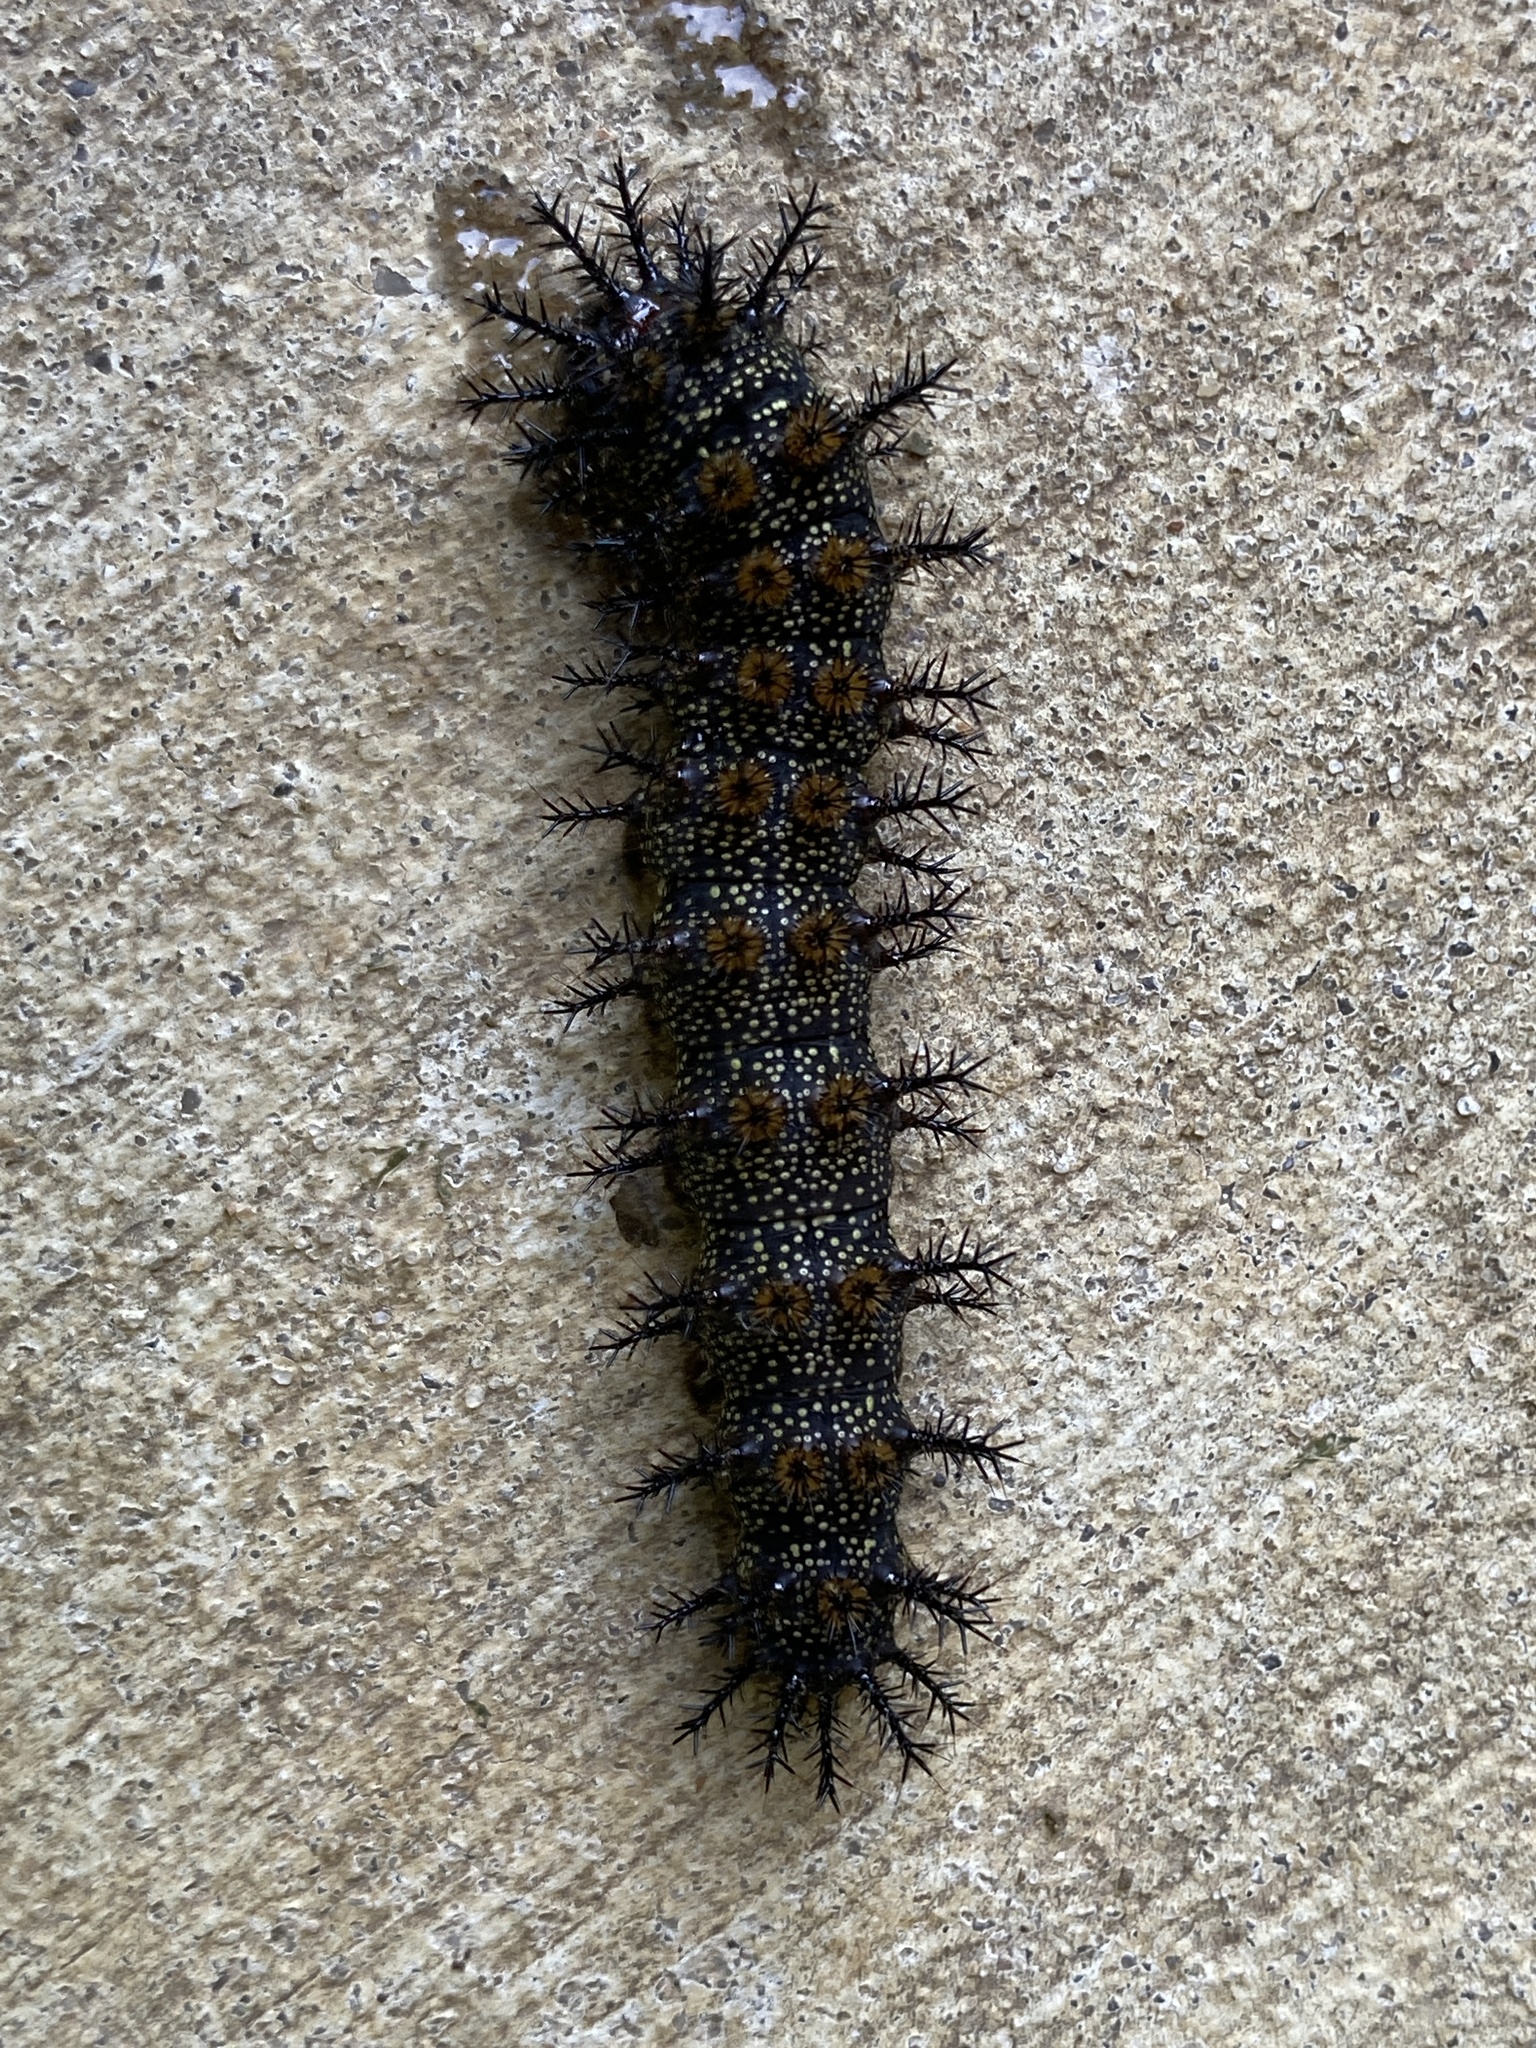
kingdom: Animalia
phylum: Arthropoda
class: Insecta
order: Lepidoptera
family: Saturniidae
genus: Hemileuca
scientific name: Hemileuca maia
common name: Eastern buckmoth
